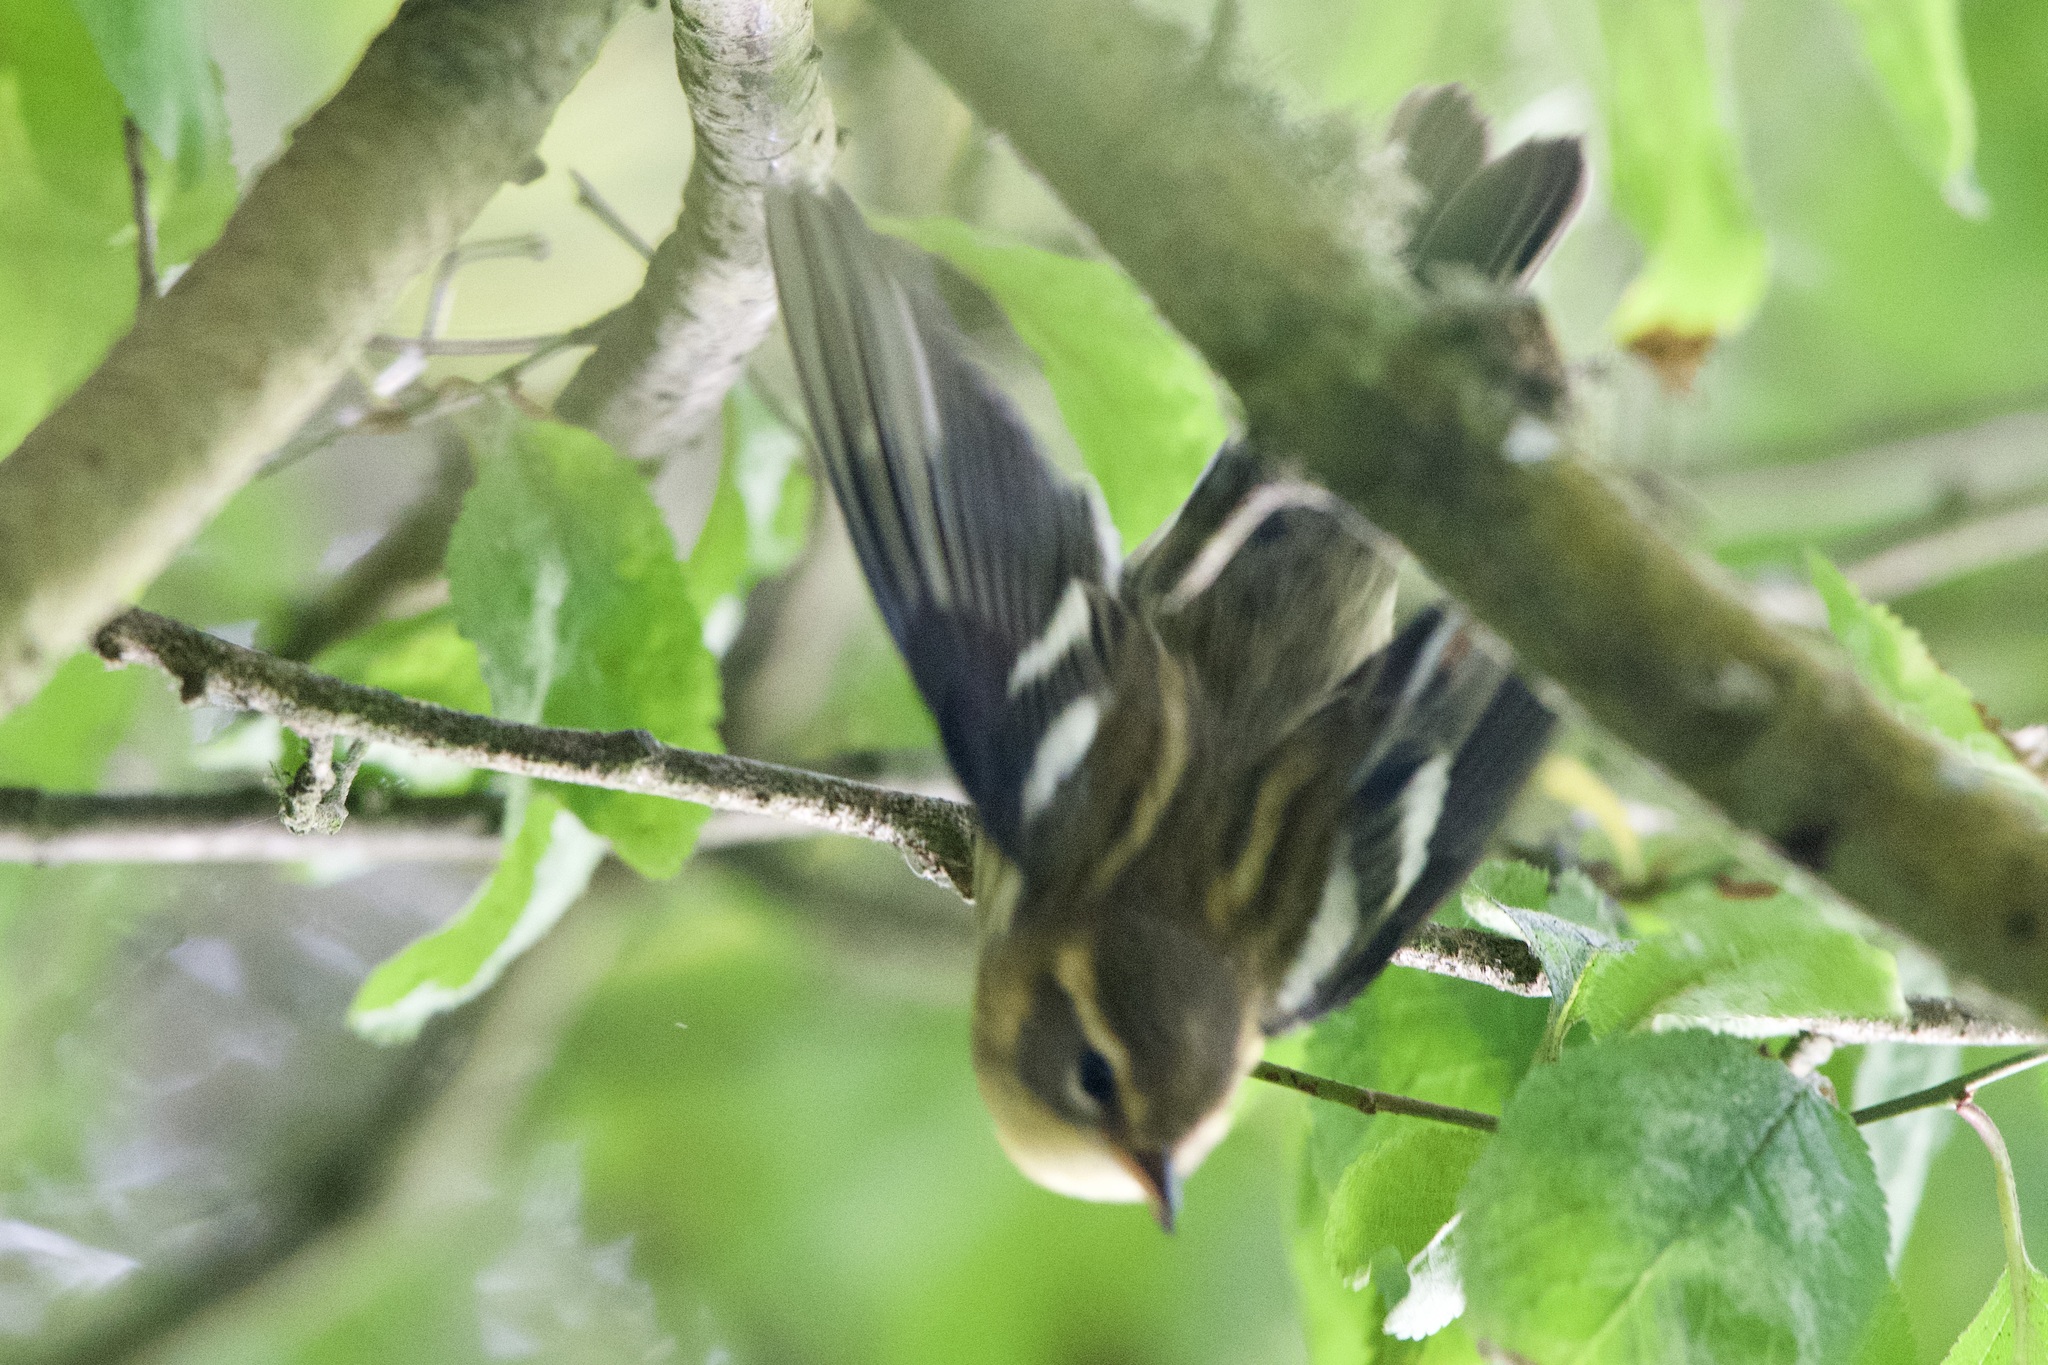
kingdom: Animalia
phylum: Chordata
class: Aves
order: Passeriformes
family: Parulidae
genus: Setophaga
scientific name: Setophaga fusca
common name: Blackburnian warbler
